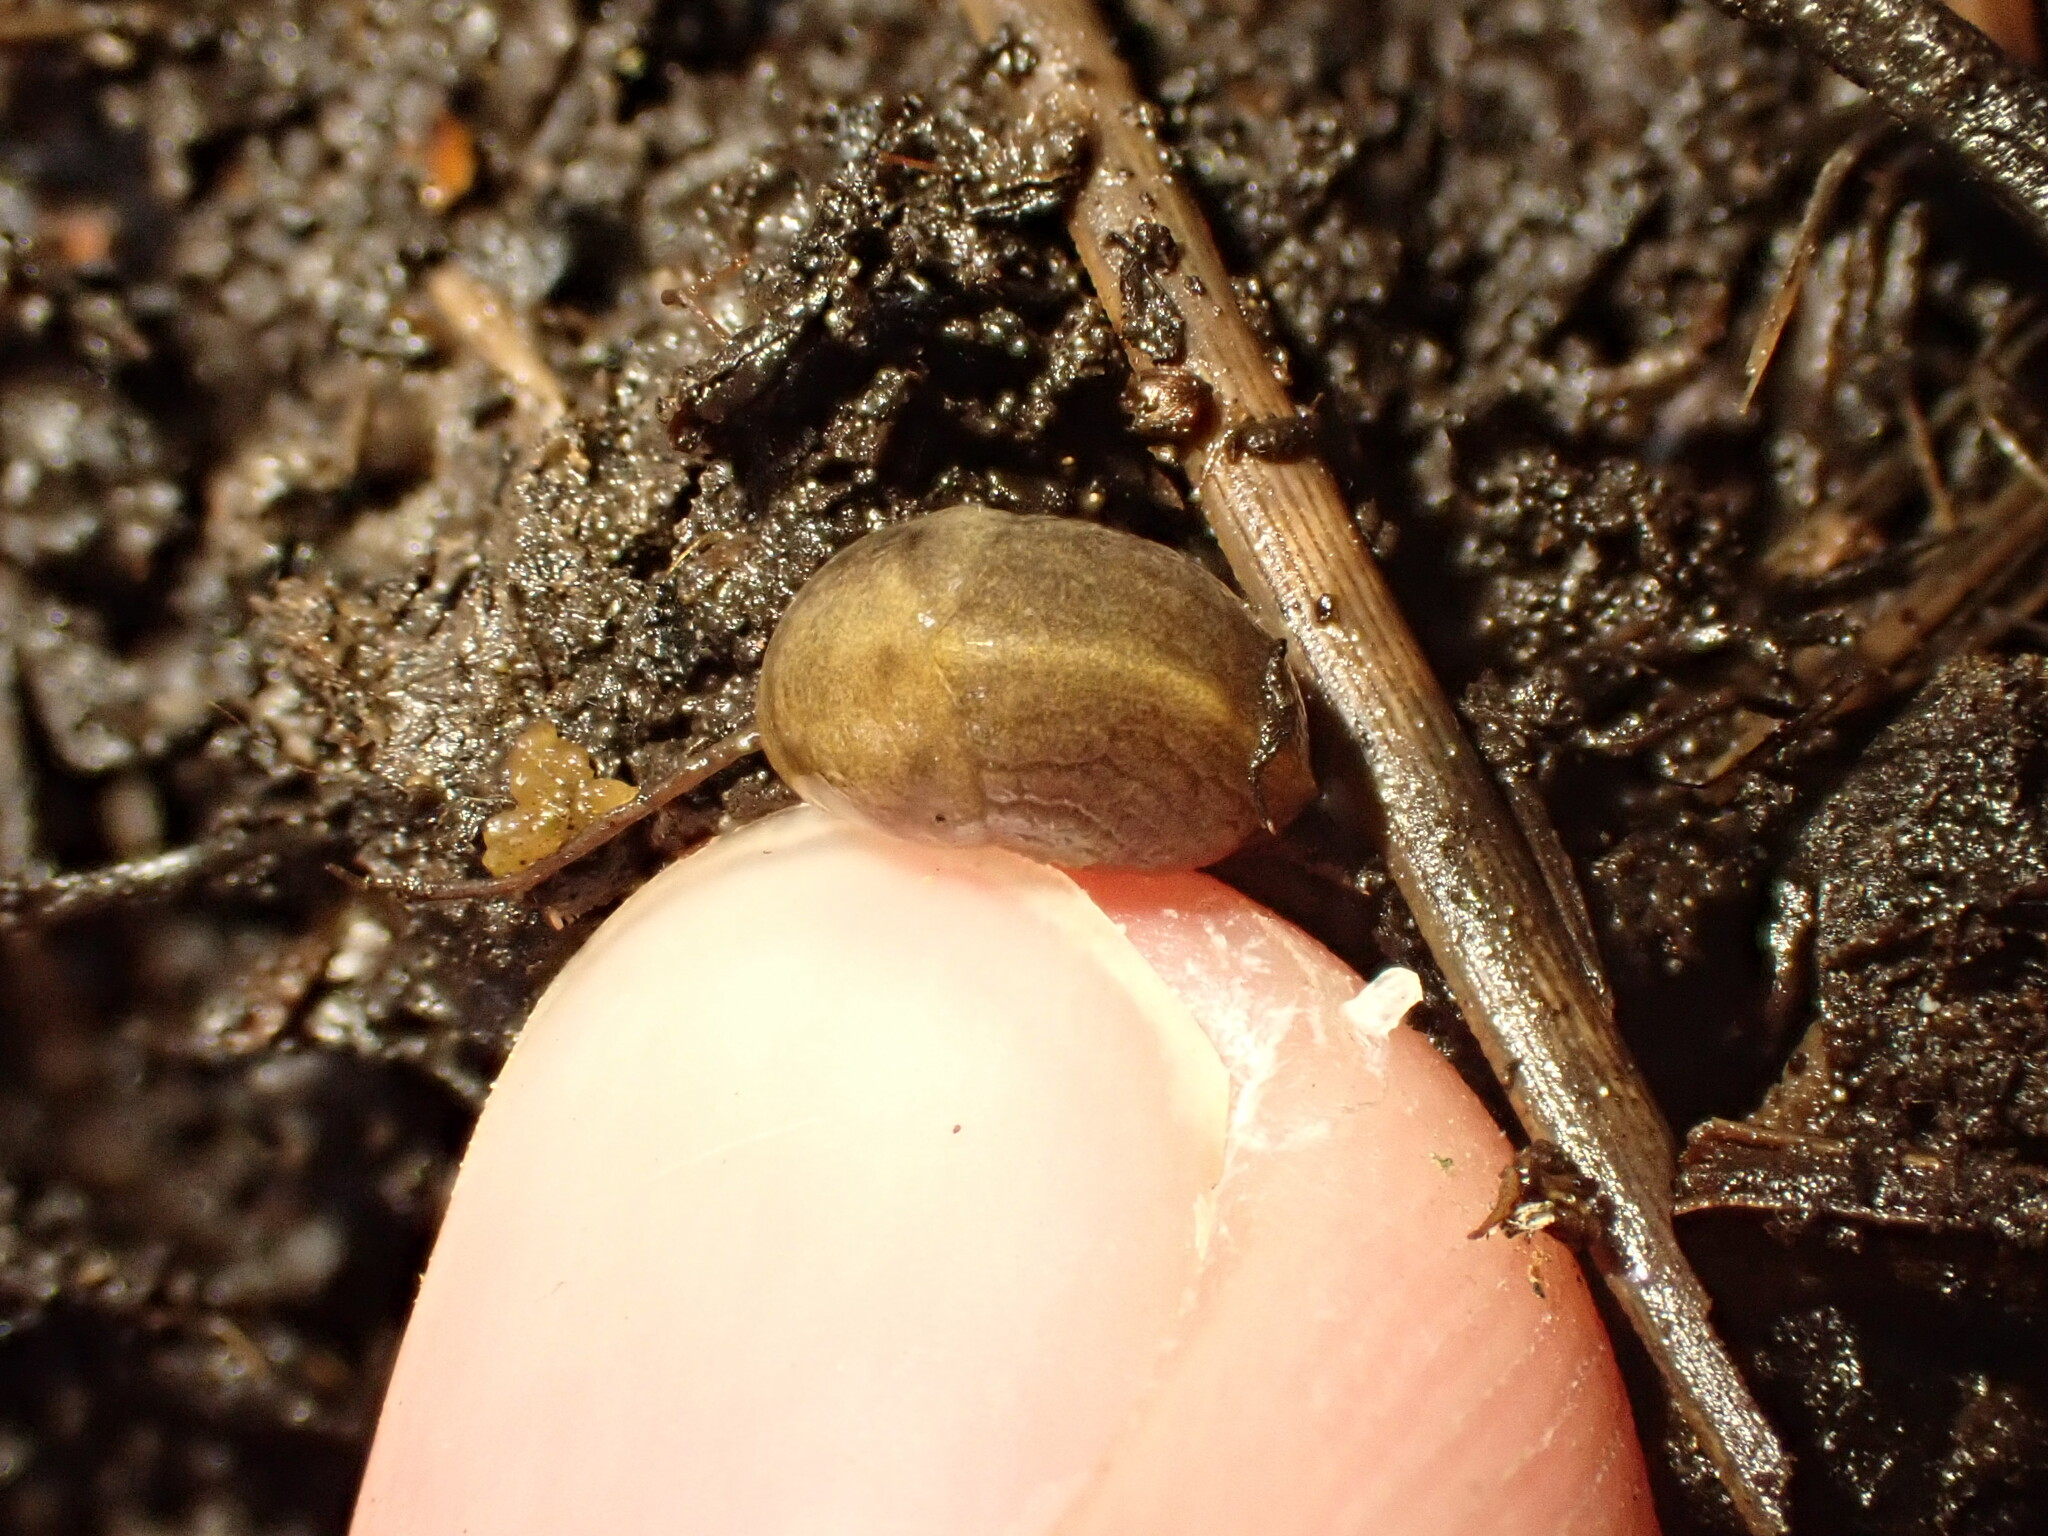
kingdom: Animalia
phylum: Mollusca
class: Gastropoda
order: Stylommatophora
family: Milacidae
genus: Milax
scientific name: Milax gagates
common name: Greenhouse slug
